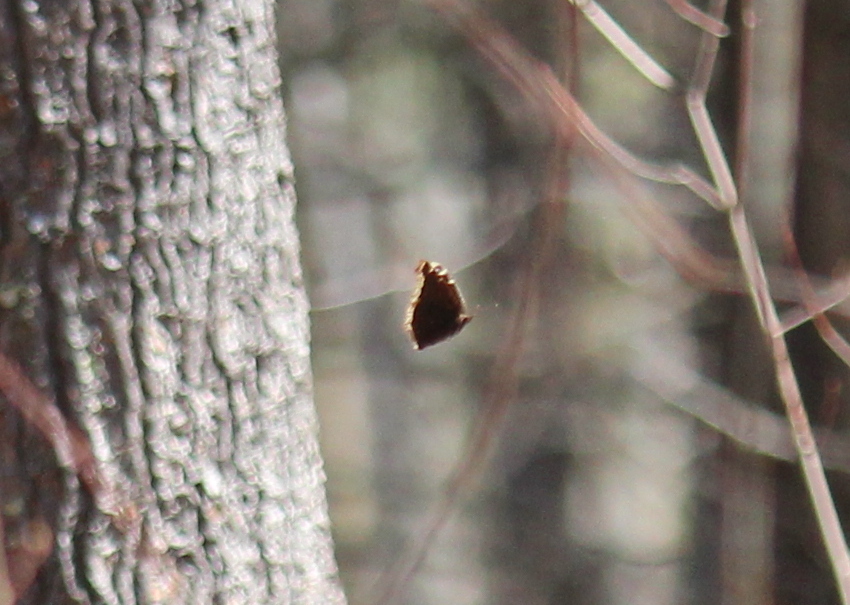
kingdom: Animalia
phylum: Arthropoda
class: Insecta
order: Lepidoptera
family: Nymphalidae
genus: Nymphalis
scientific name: Nymphalis antiopa
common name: Camberwell beauty
